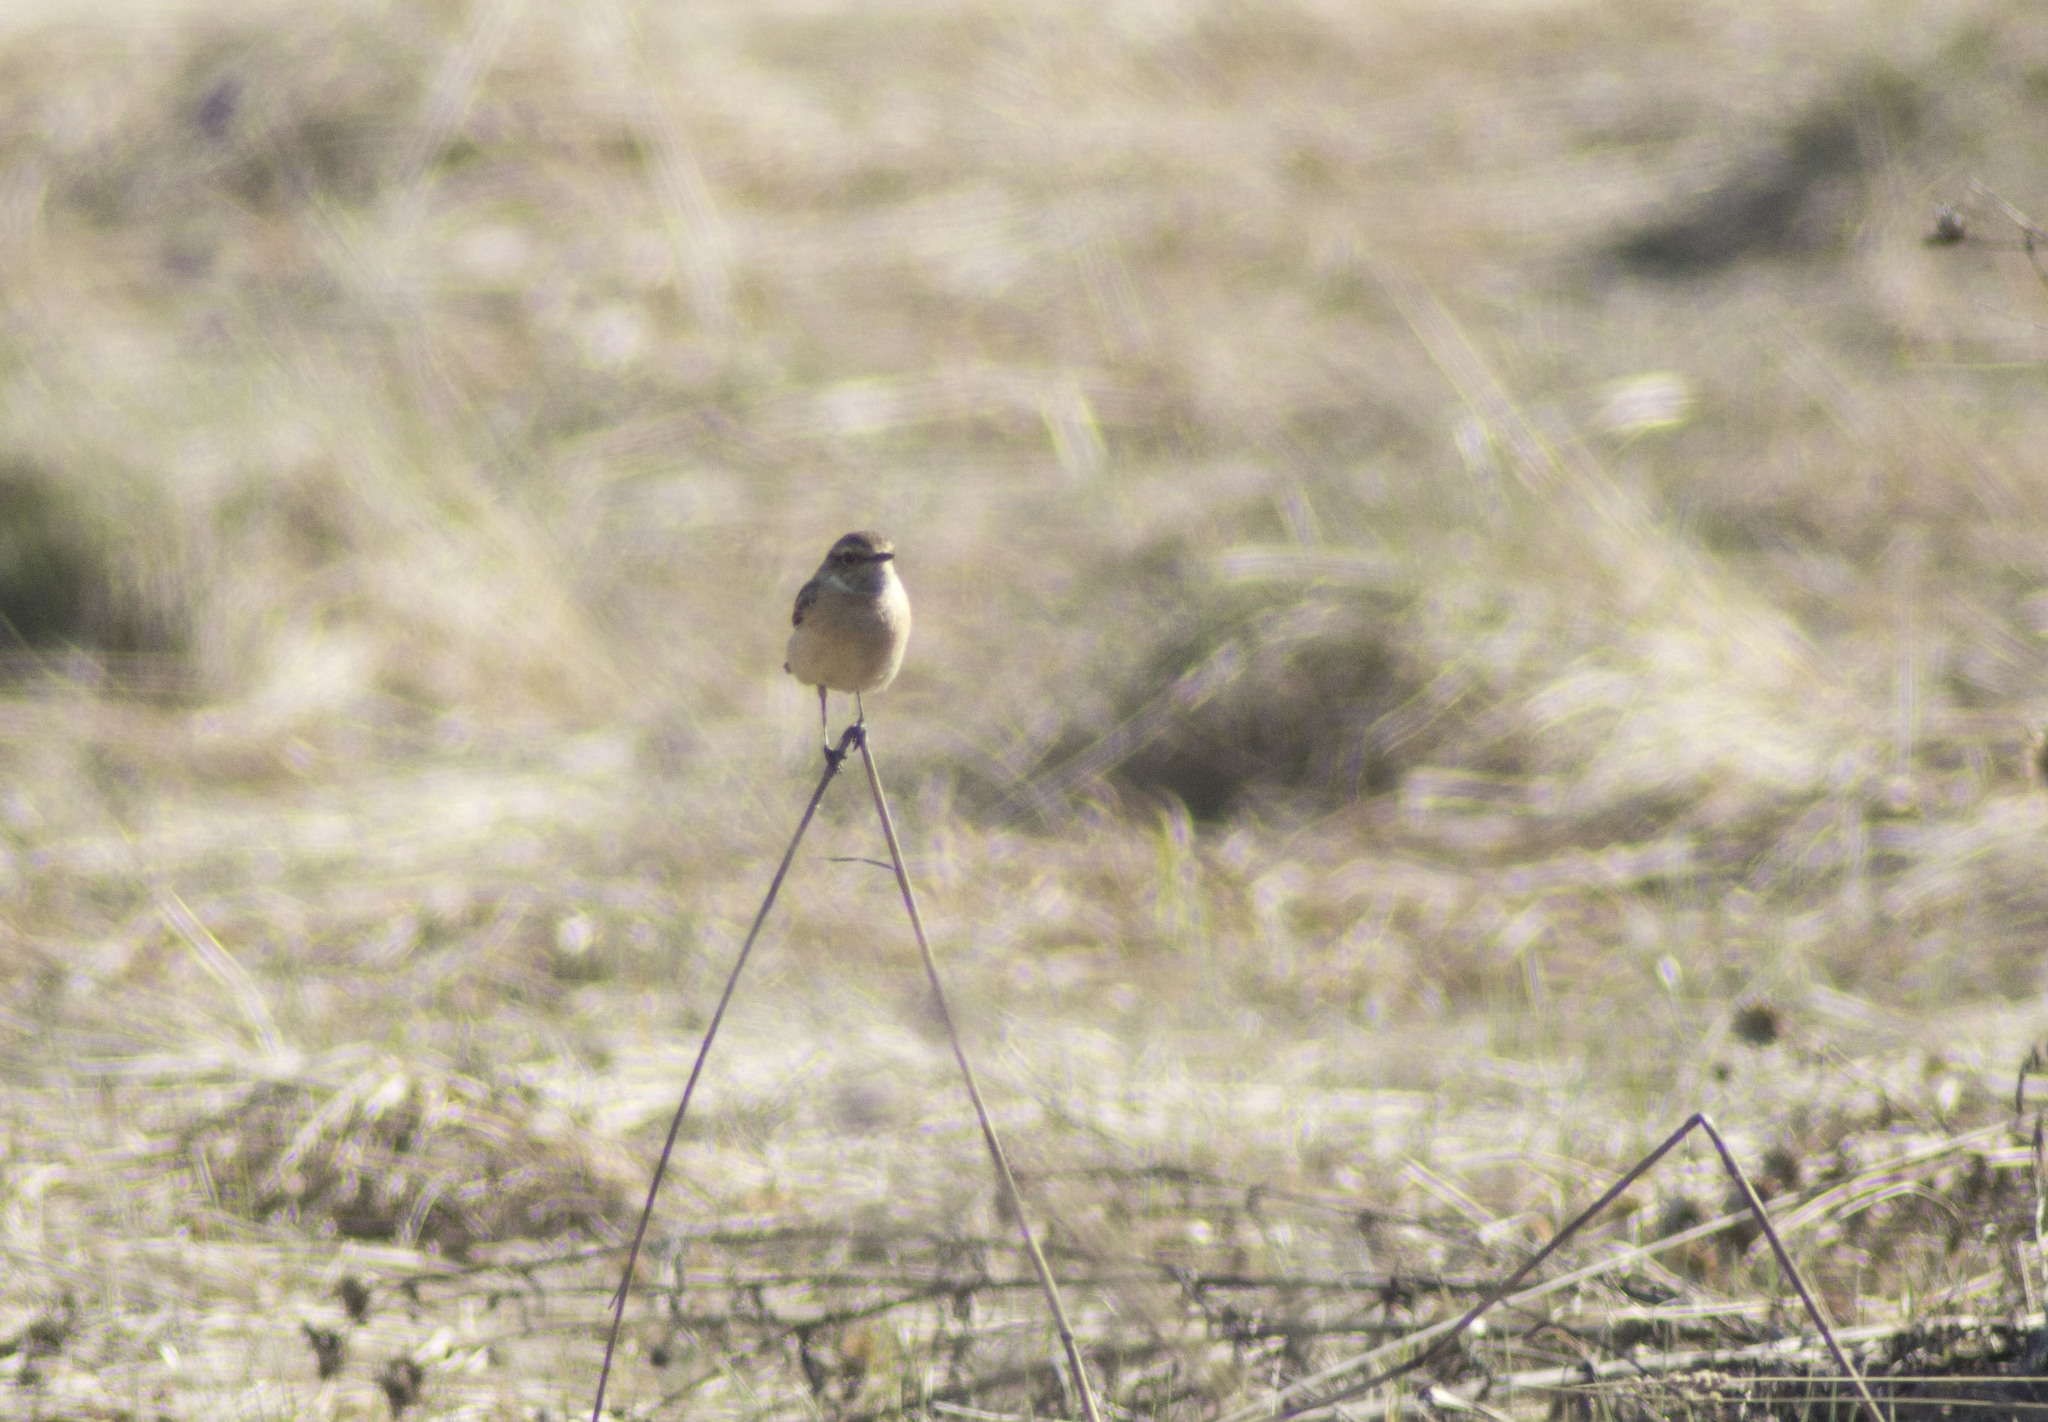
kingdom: Animalia
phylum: Chordata
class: Aves
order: Passeriformes
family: Muscicapidae
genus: Saxicola
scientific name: Saxicola maurus
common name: Siberian stonechat
